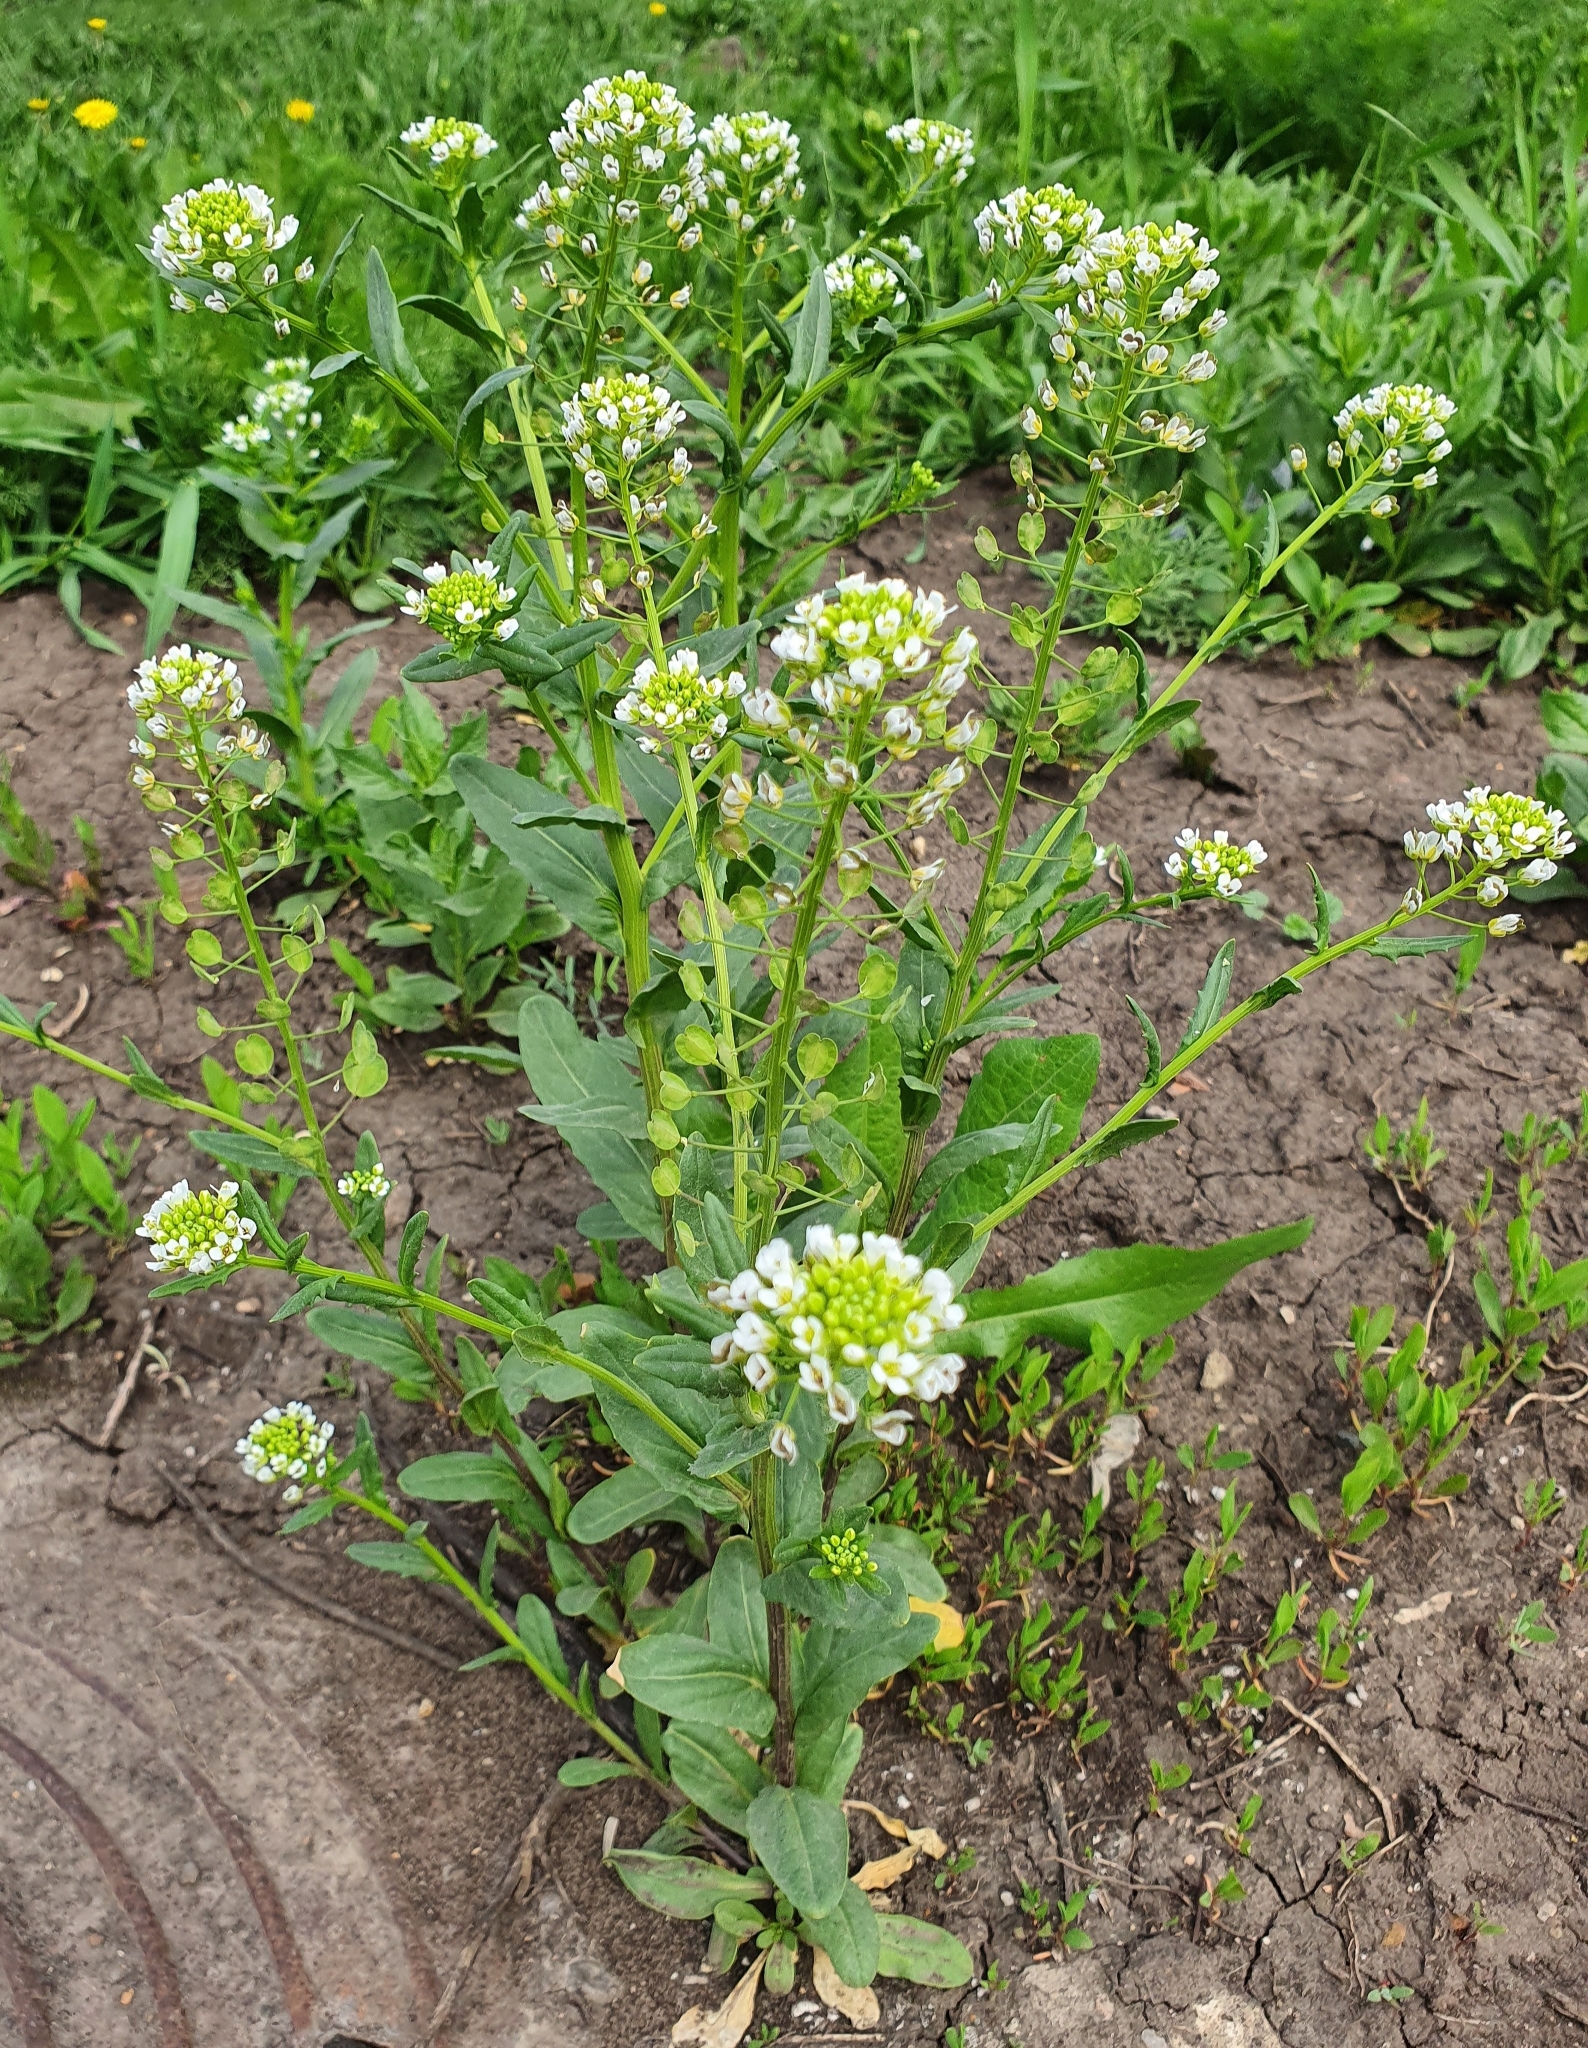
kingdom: Plantae
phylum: Tracheophyta
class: Magnoliopsida
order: Brassicales
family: Brassicaceae
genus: Thlaspi
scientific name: Thlaspi arvense
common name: Field pennycress
